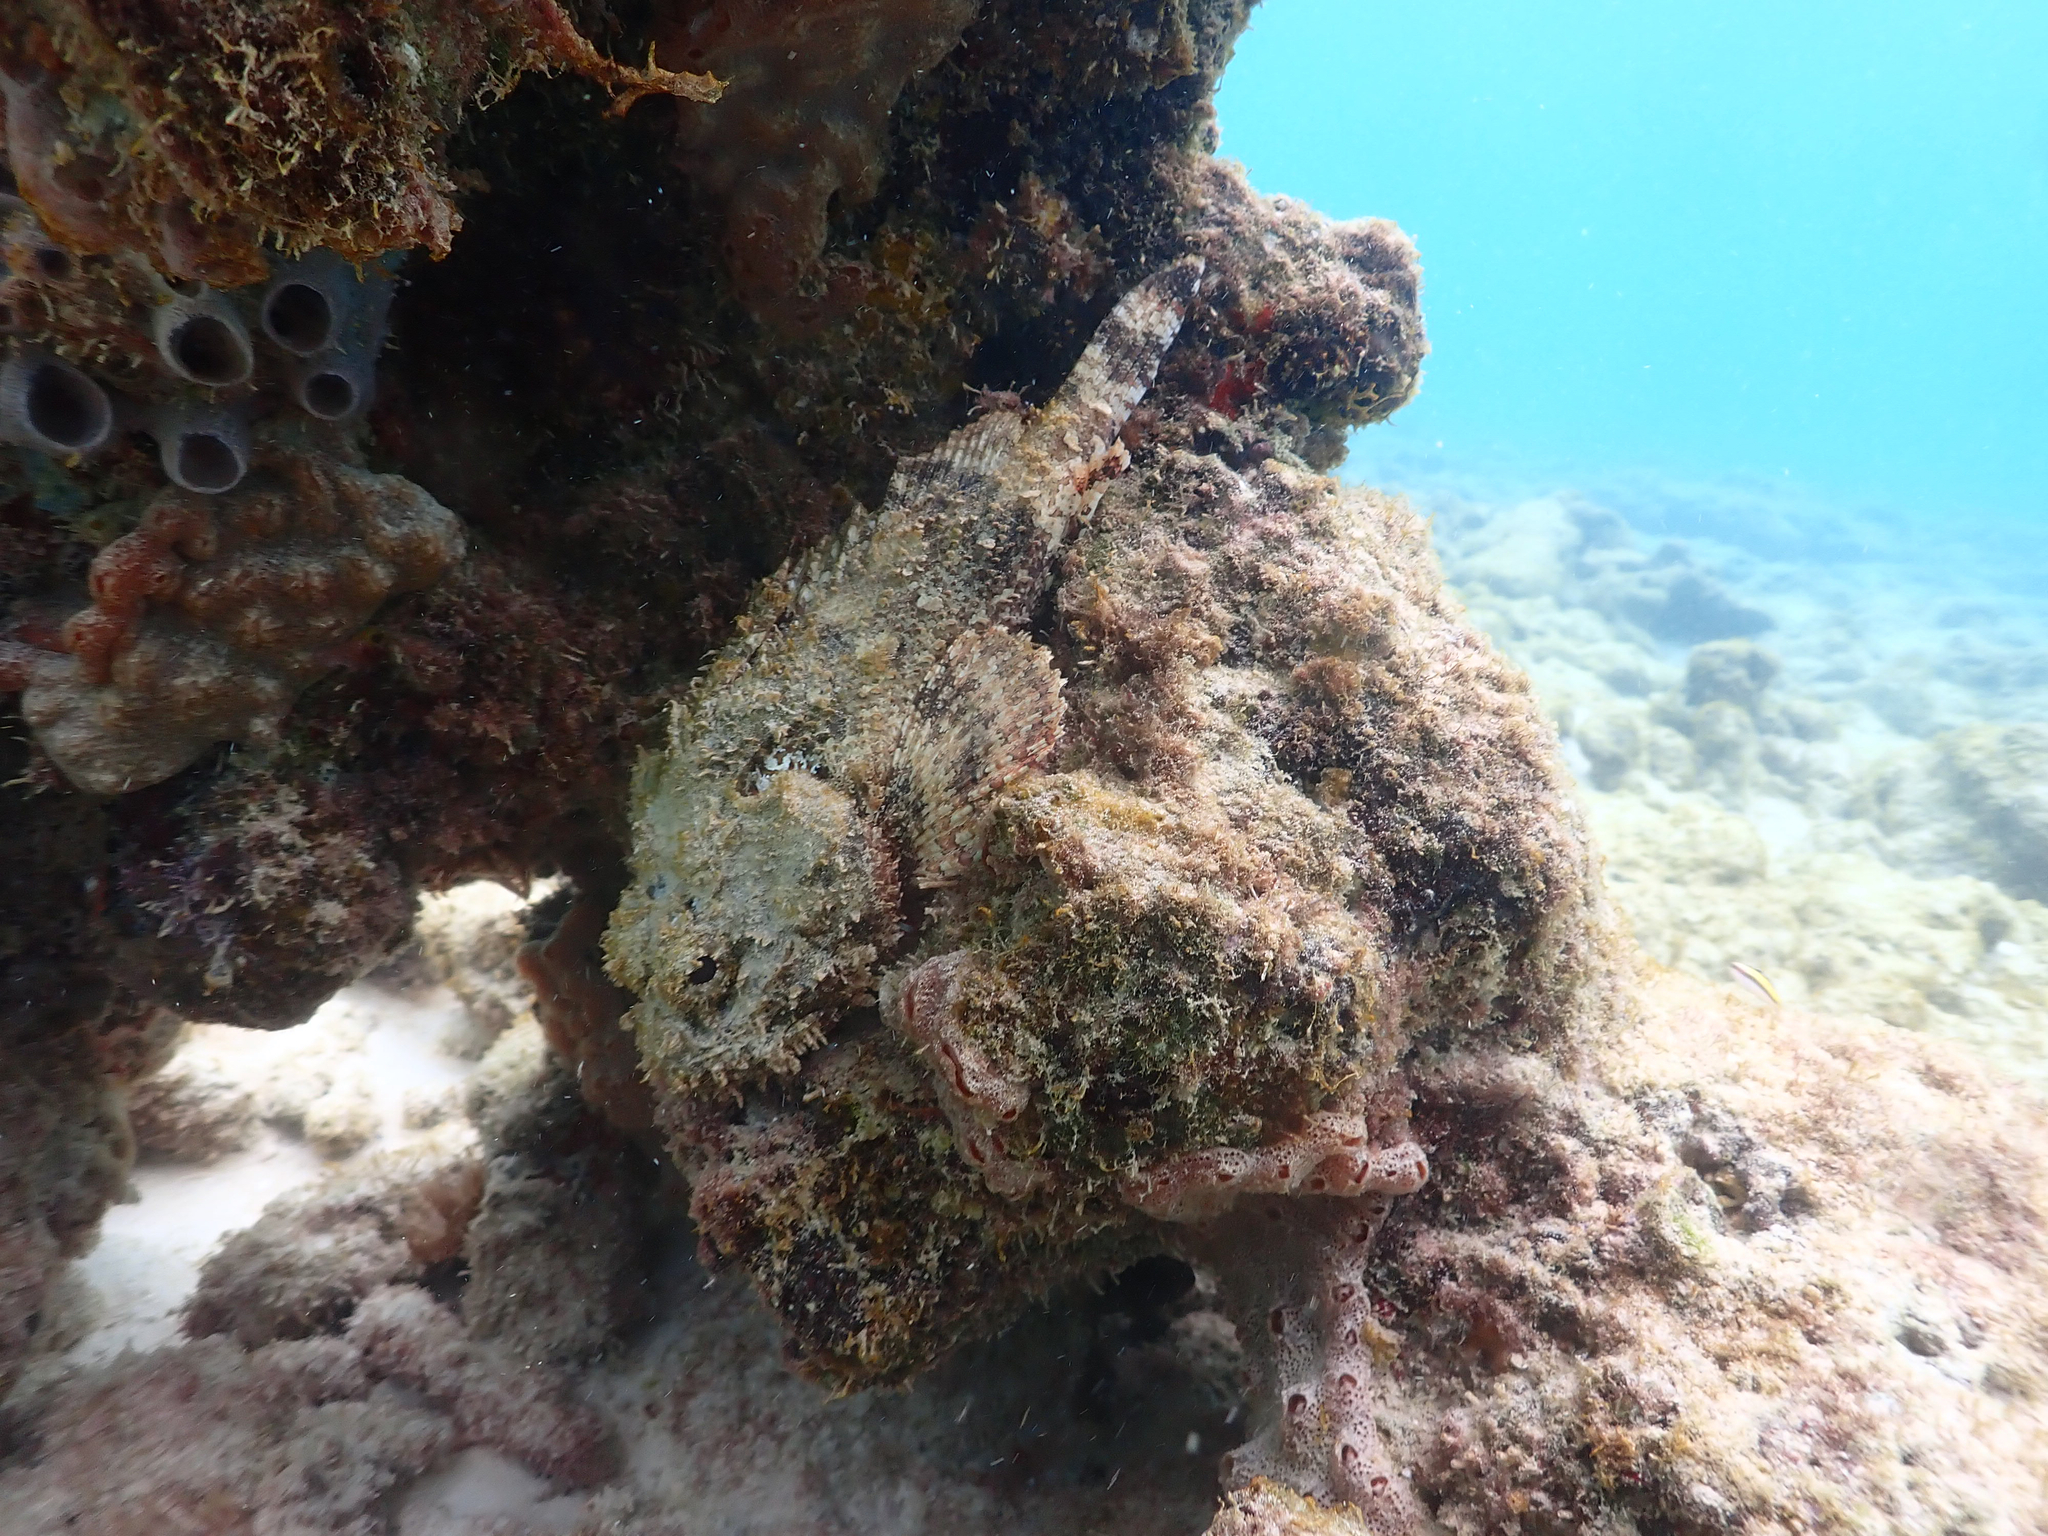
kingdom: Animalia
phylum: Chordata
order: Scorpaeniformes
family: Scorpaenidae
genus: Scorpaena
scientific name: Scorpaena plumieri
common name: Spotted scorpionfish
